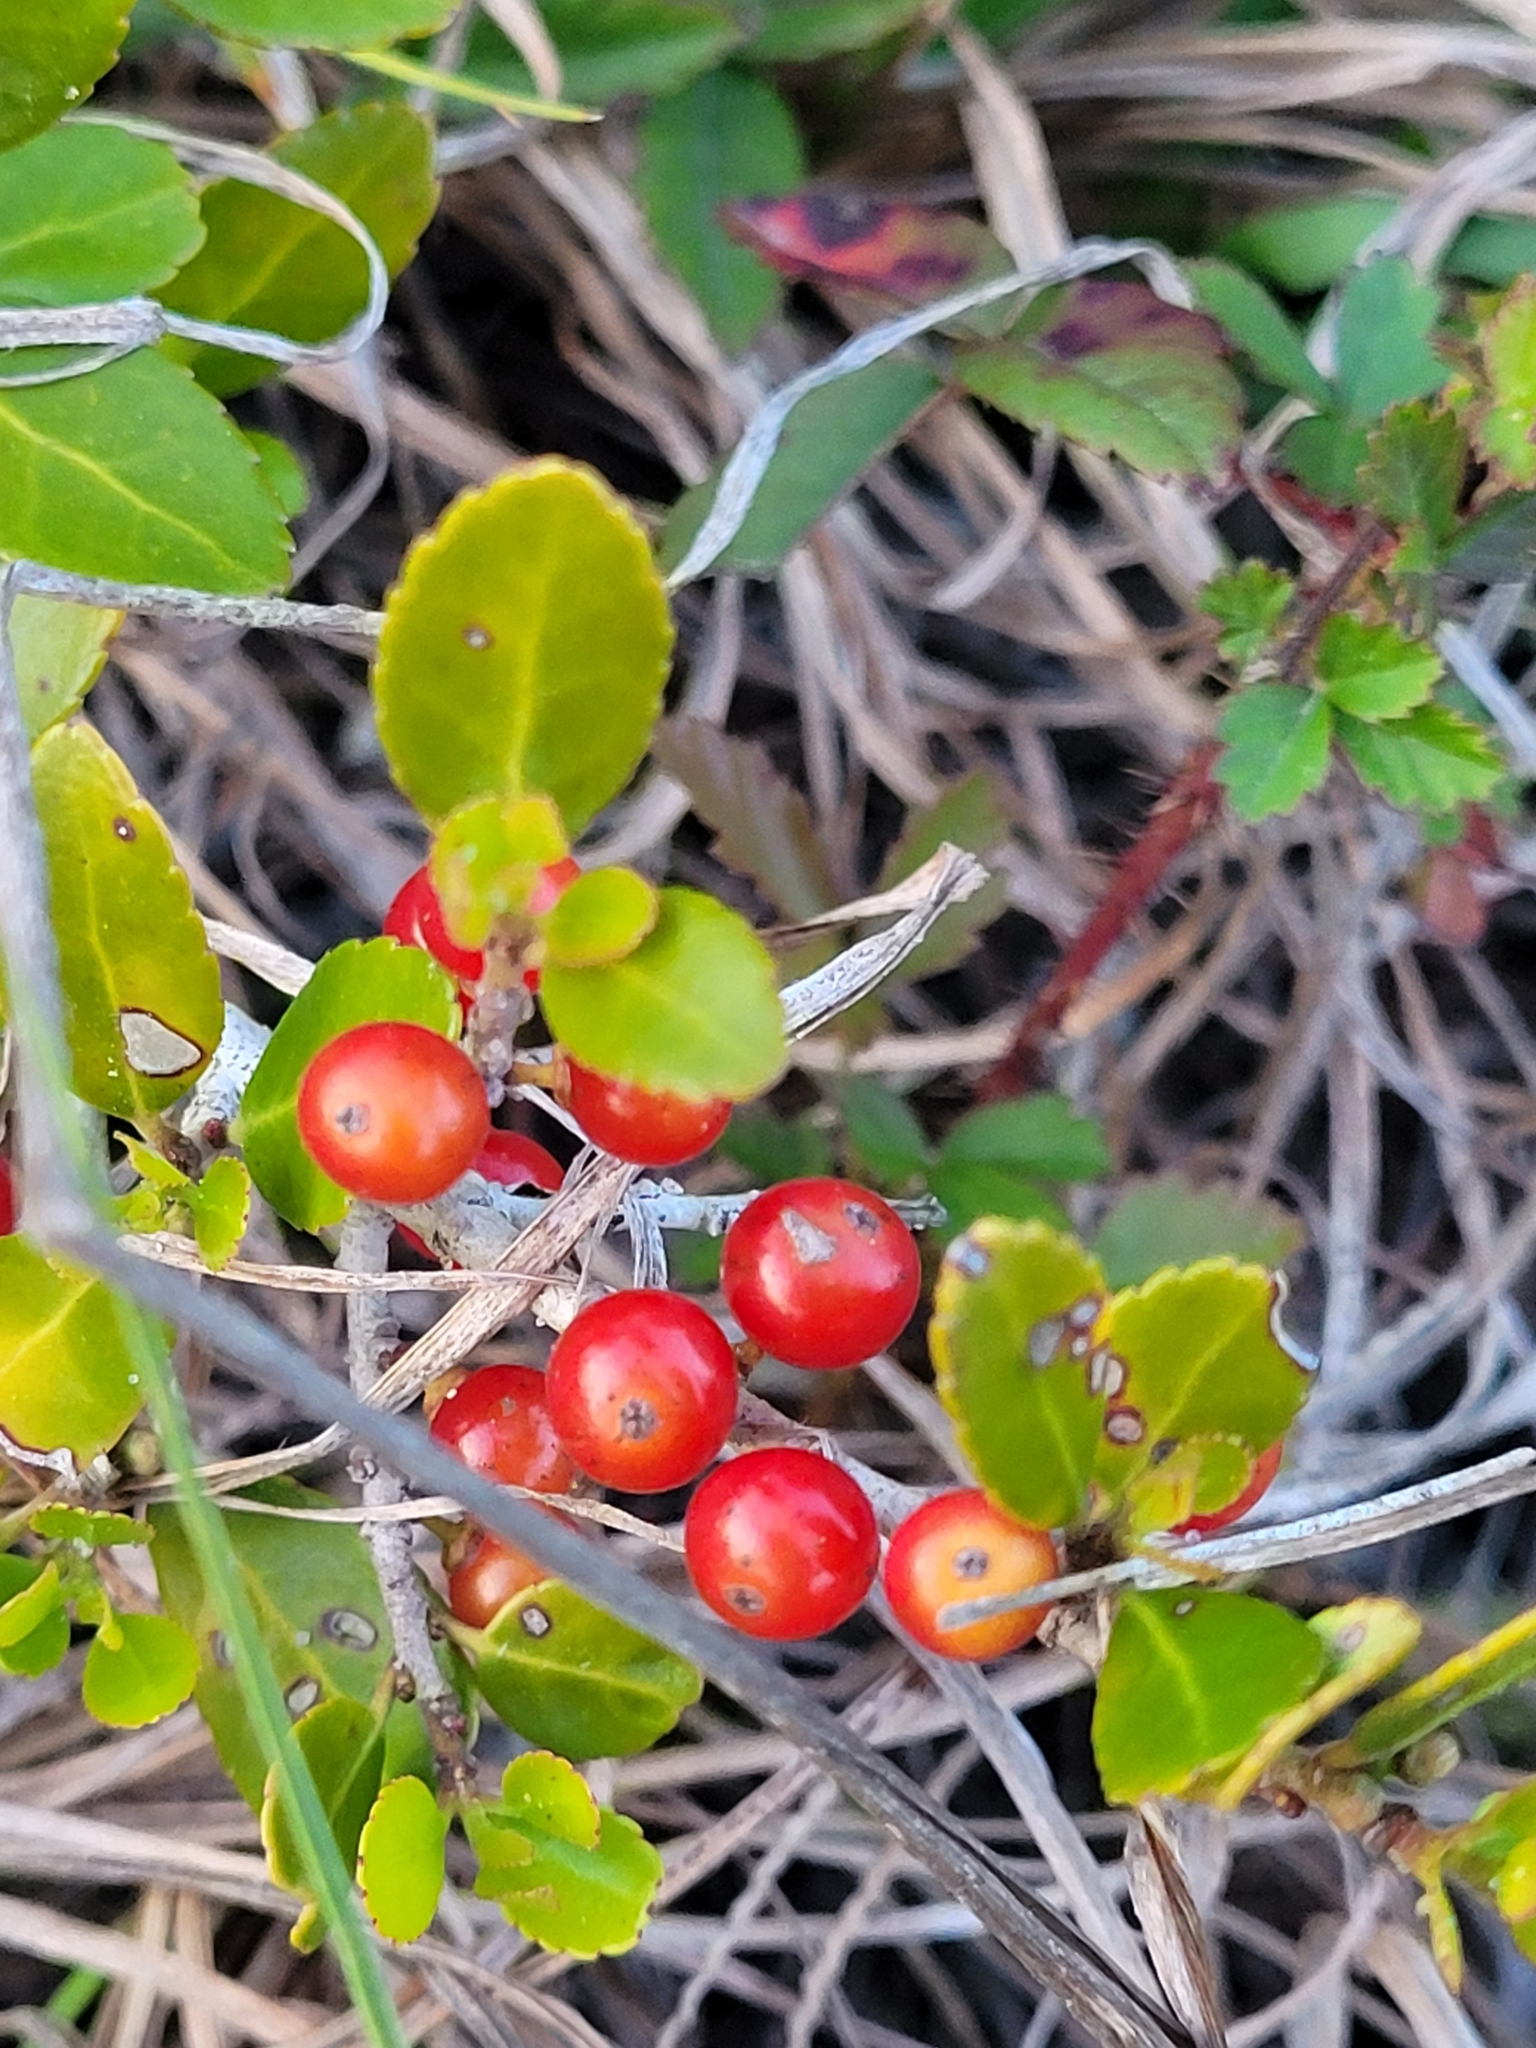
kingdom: Plantae
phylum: Tracheophyta
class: Magnoliopsida
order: Aquifoliales
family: Aquifoliaceae
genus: Ilex
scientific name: Ilex vomitoria
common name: Yaupon holly
